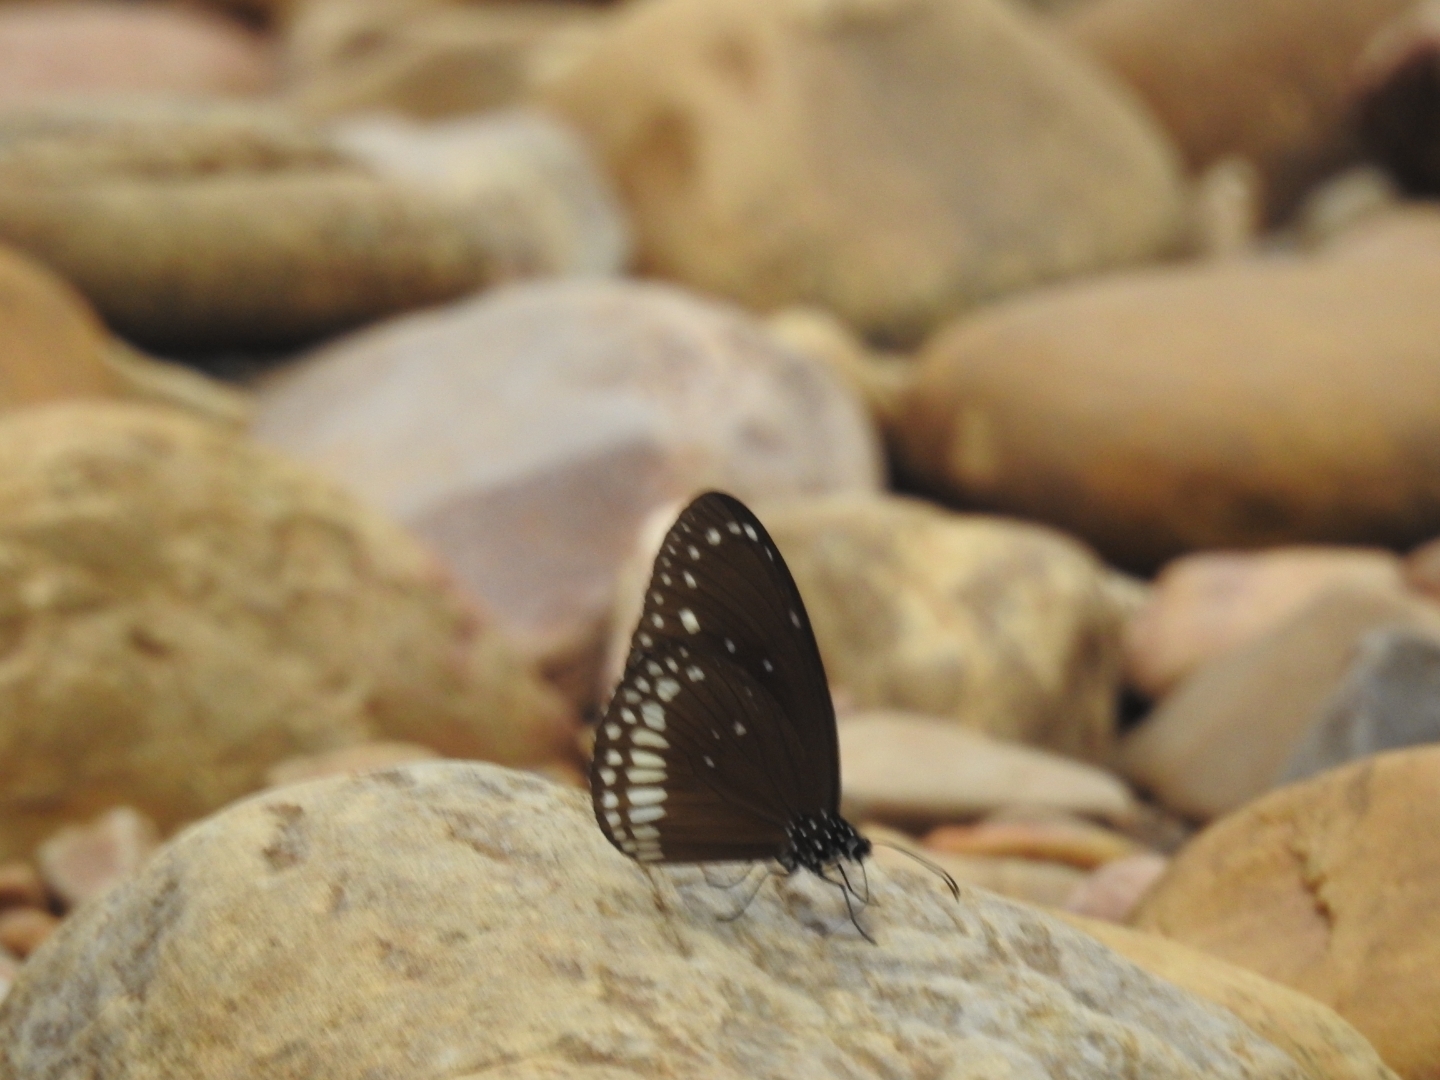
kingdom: Animalia
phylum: Arthropoda
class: Insecta
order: Lepidoptera
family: Nymphalidae
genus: Euploea
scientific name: Euploea core
